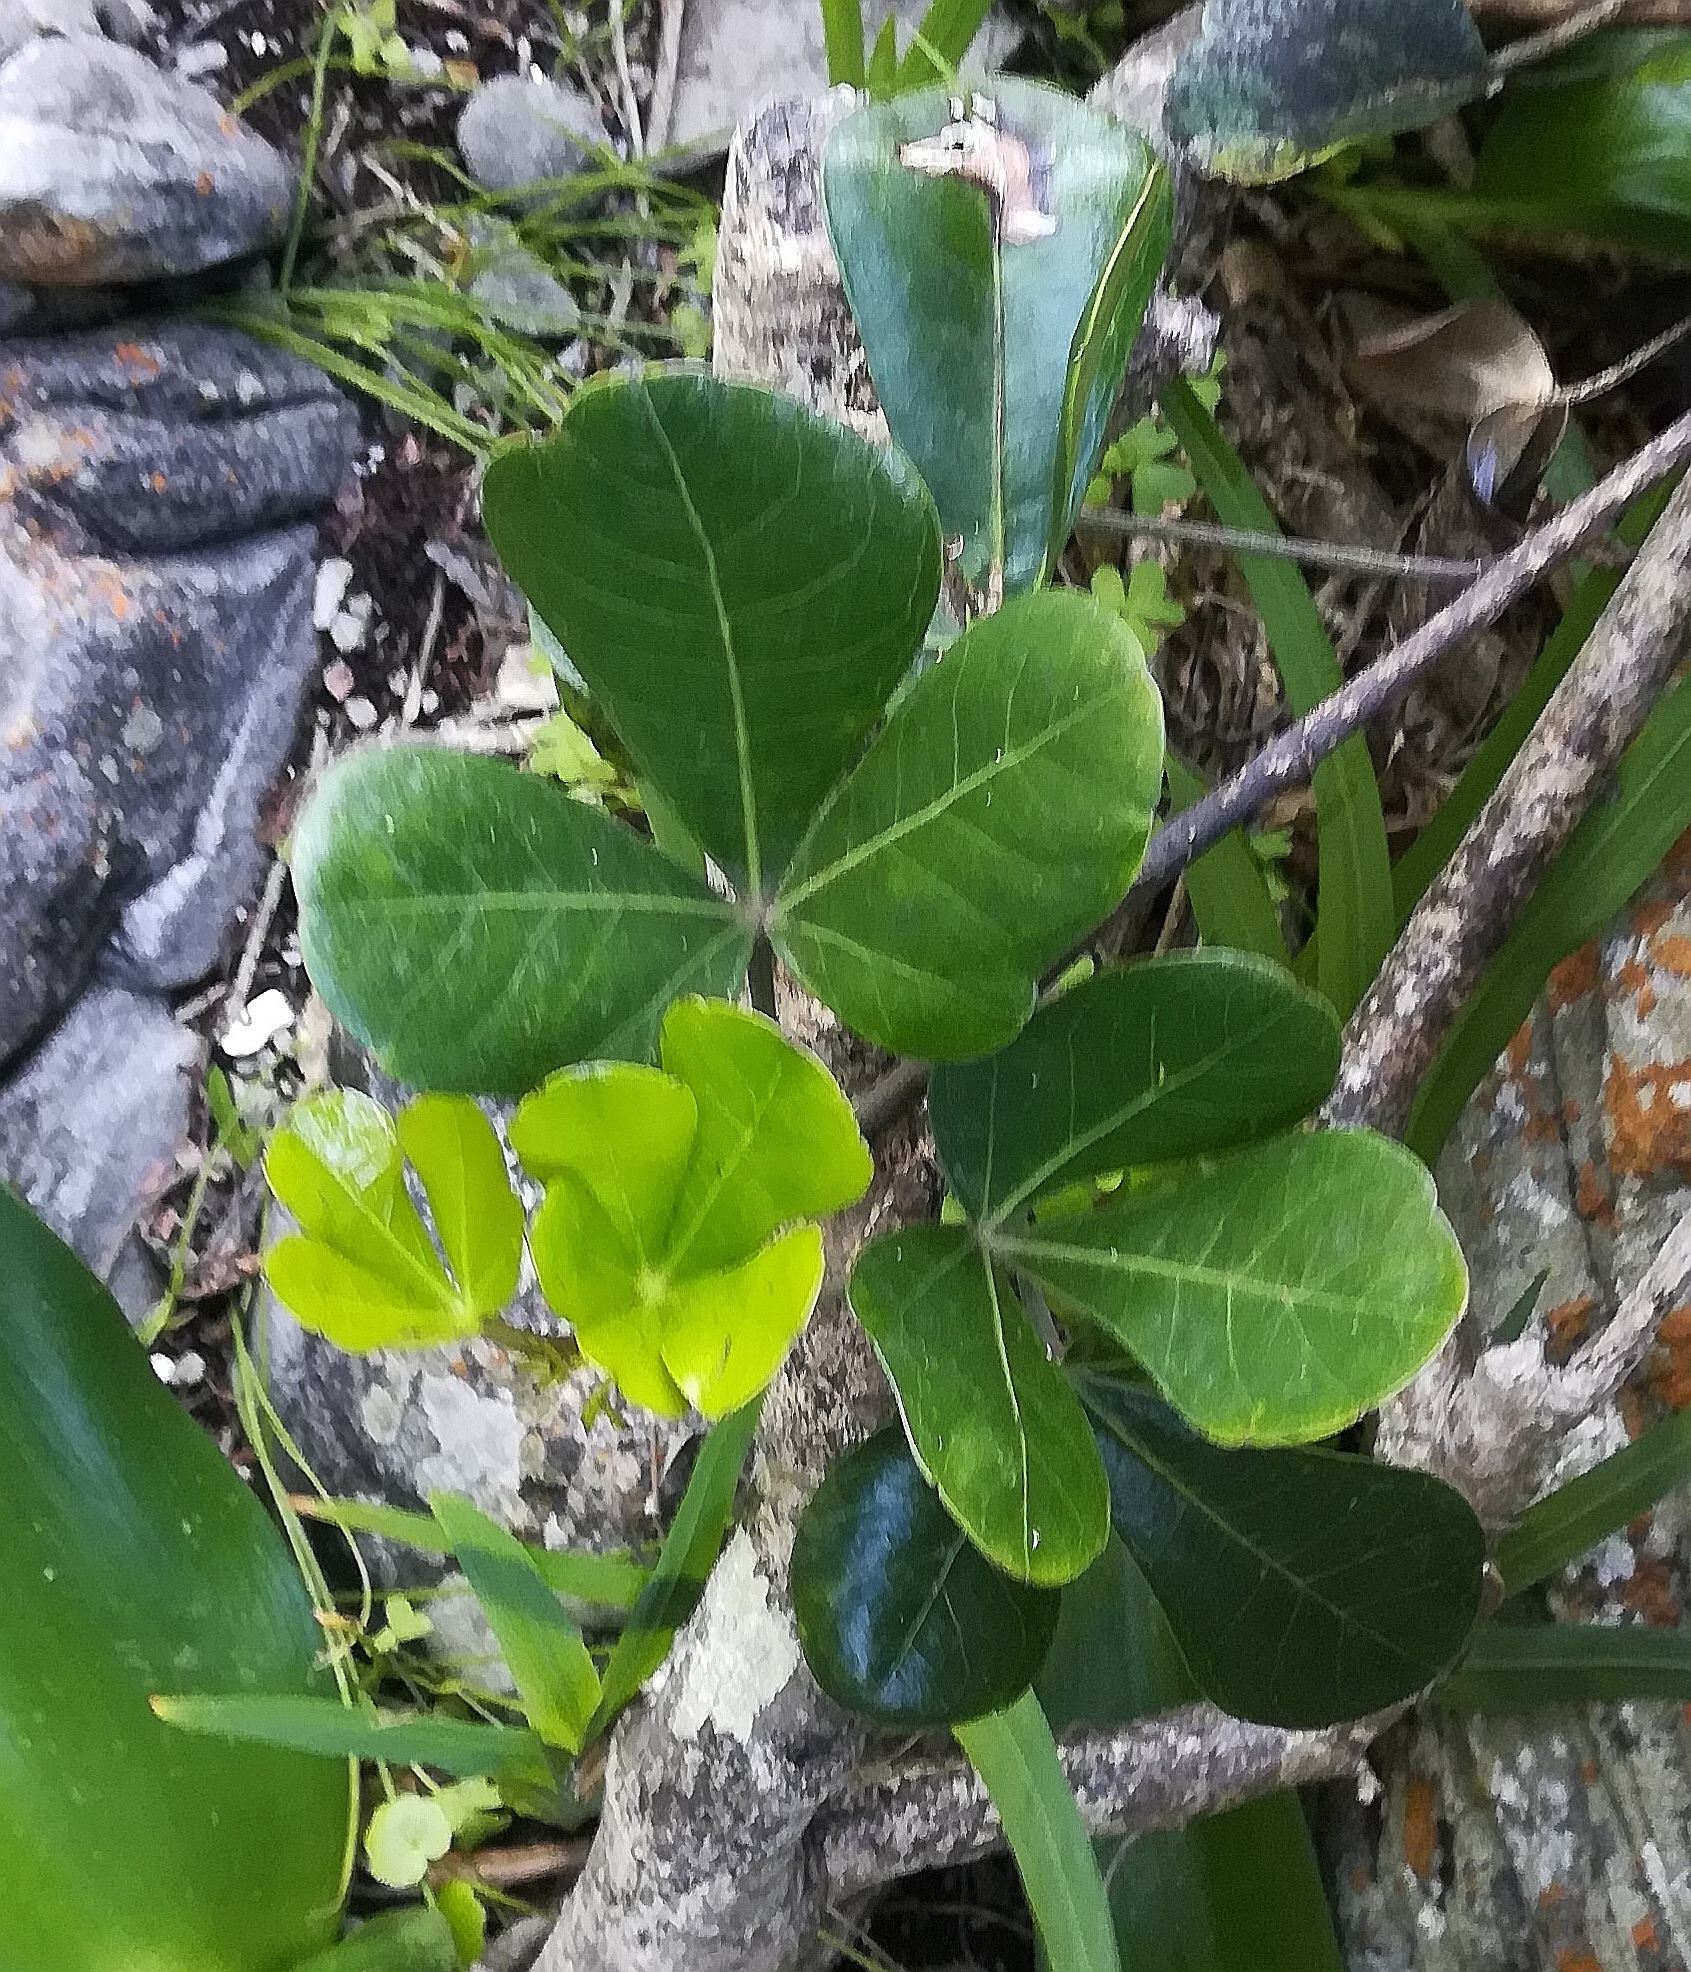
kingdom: Plantae
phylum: Tracheophyta
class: Magnoliopsida
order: Apiales
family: Araliaceae
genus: Cussonia
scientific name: Cussonia thyrsiflora
